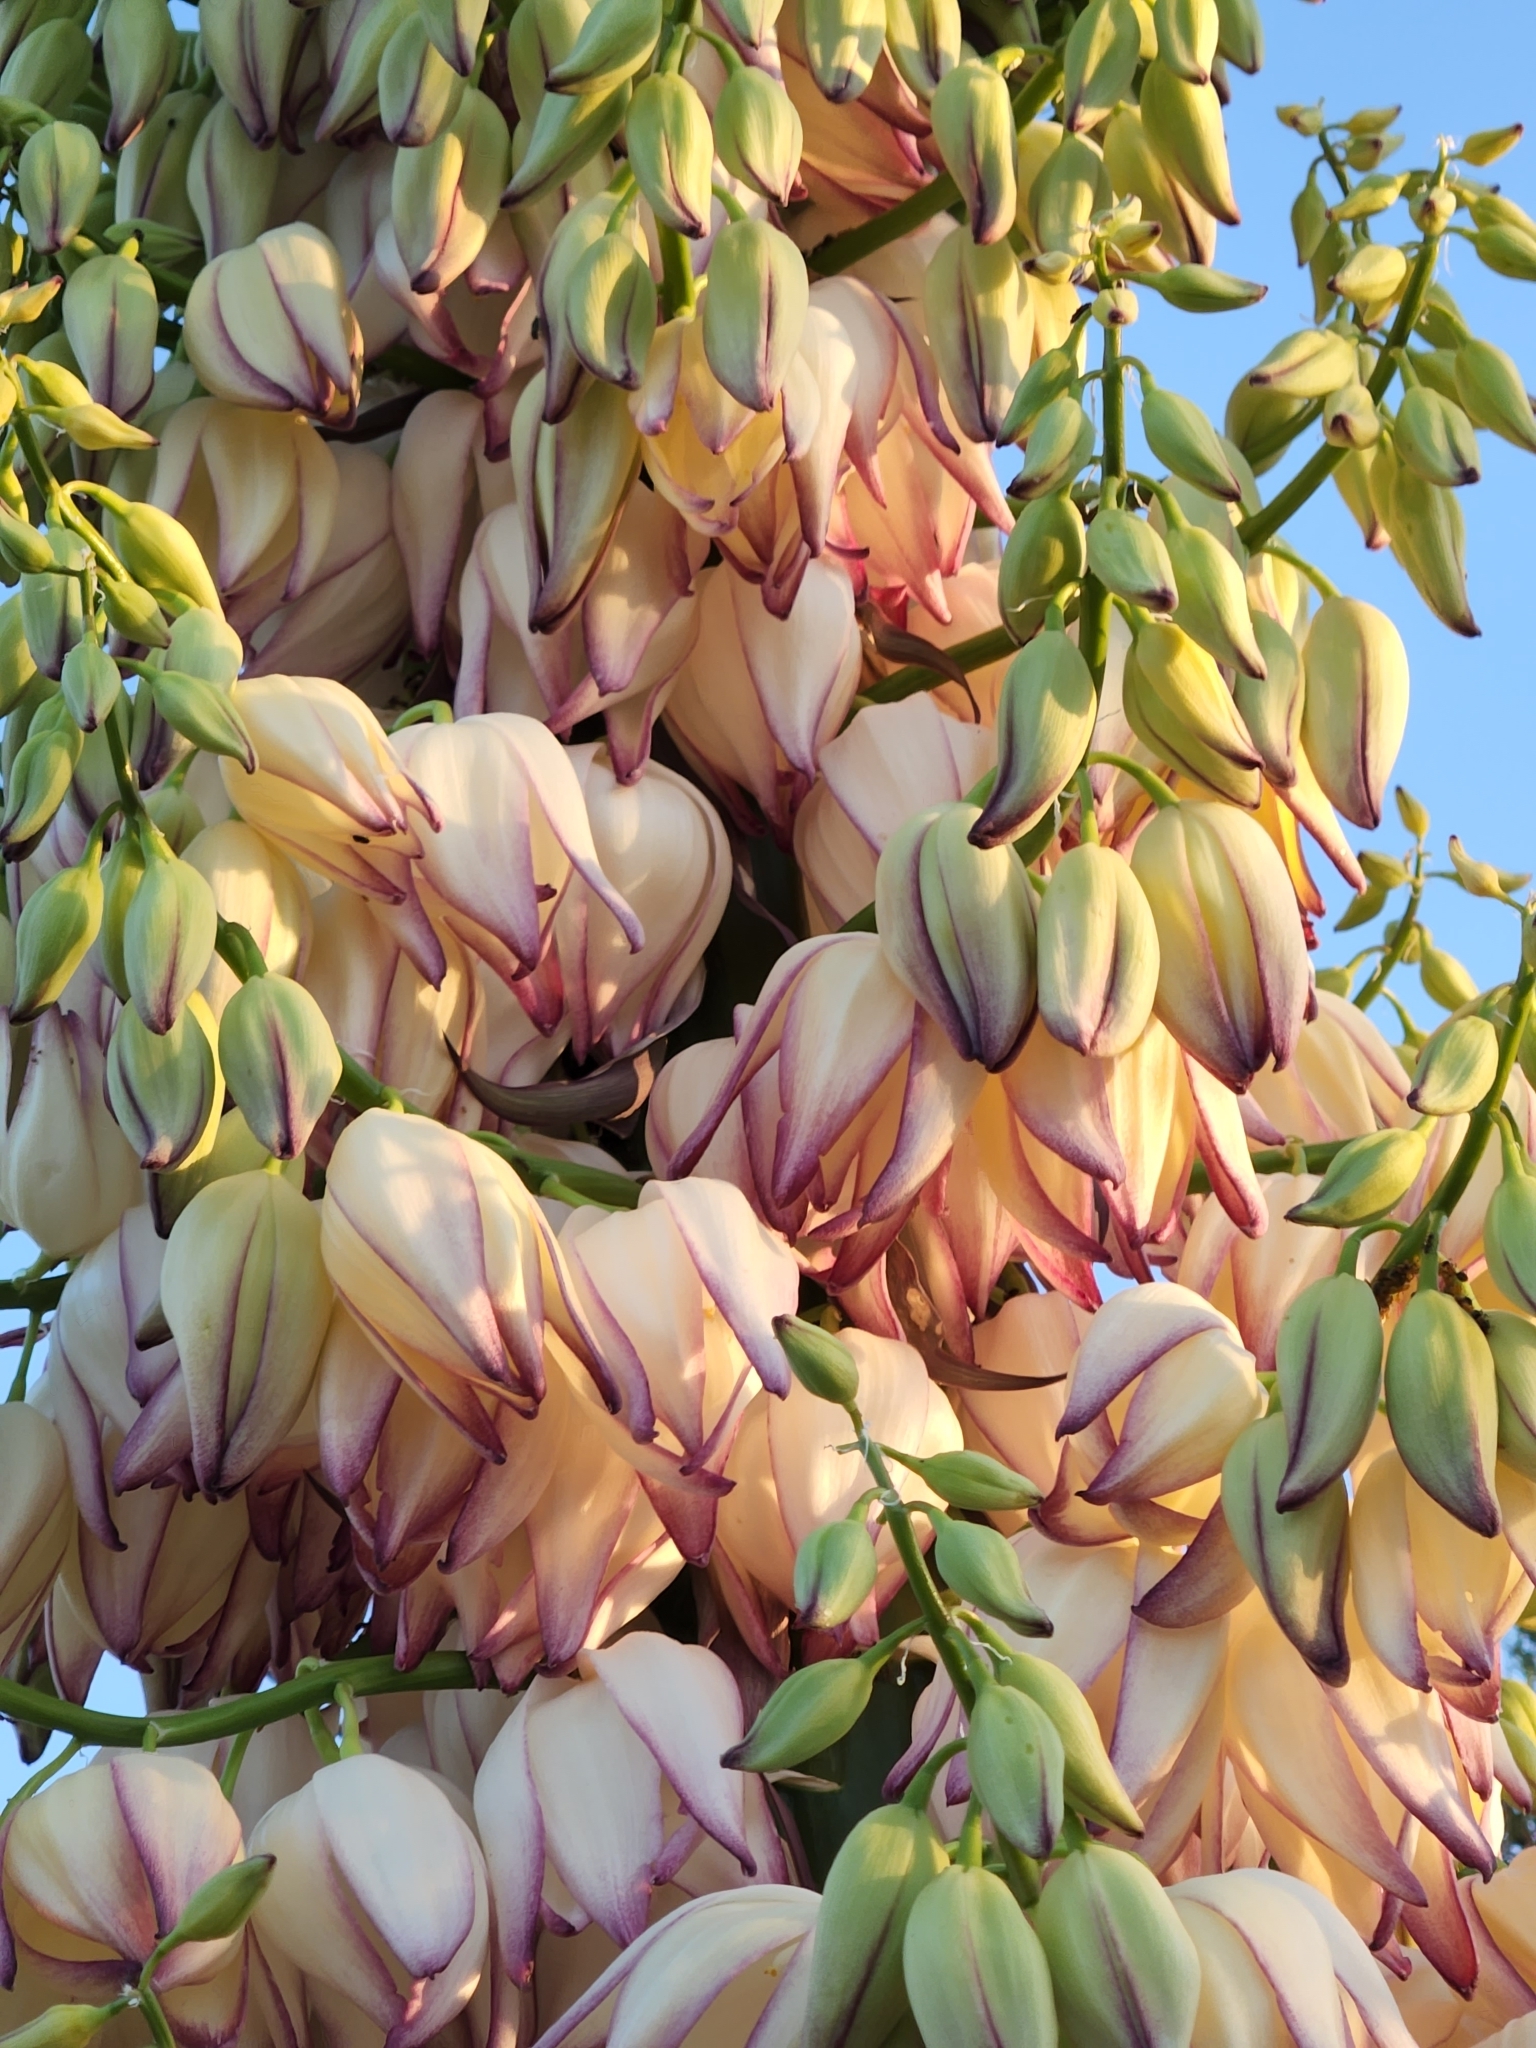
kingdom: Plantae
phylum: Tracheophyta
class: Liliopsida
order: Asparagales
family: Asparagaceae
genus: Hesperoyucca
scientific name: Hesperoyucca whipplei
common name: Our lord's-candle
